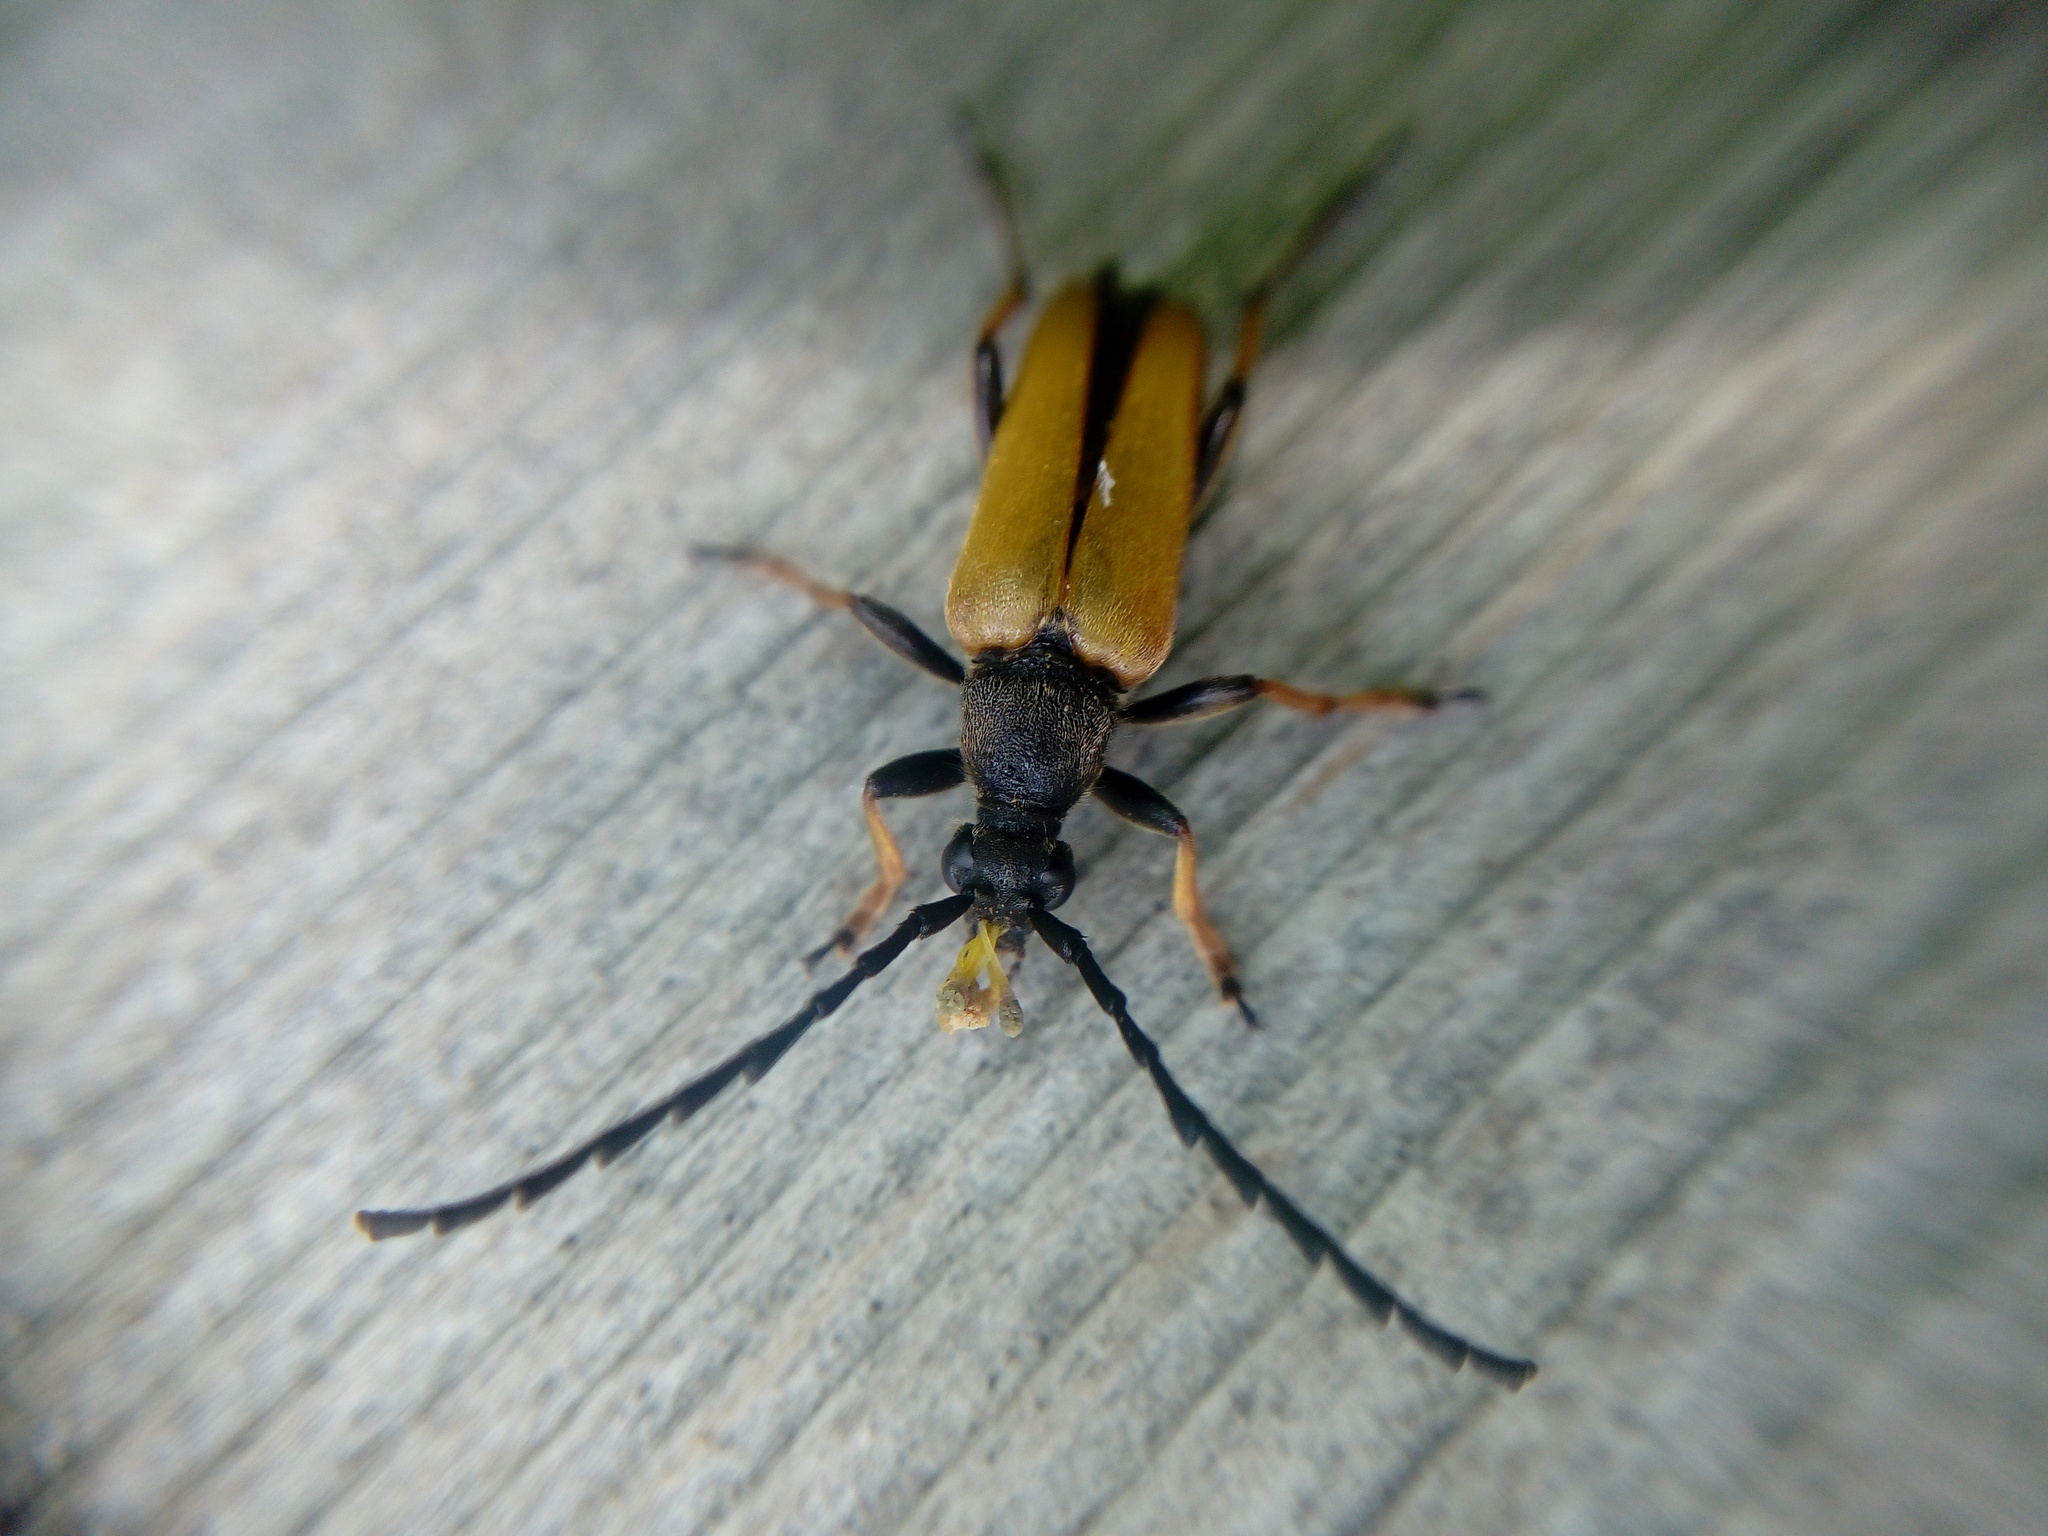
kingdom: Animalia
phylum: Arthropoda
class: Insecta
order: Coleoptera
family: Cerambycidae
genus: Stictoleptura
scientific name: Stictoleptura rubra
